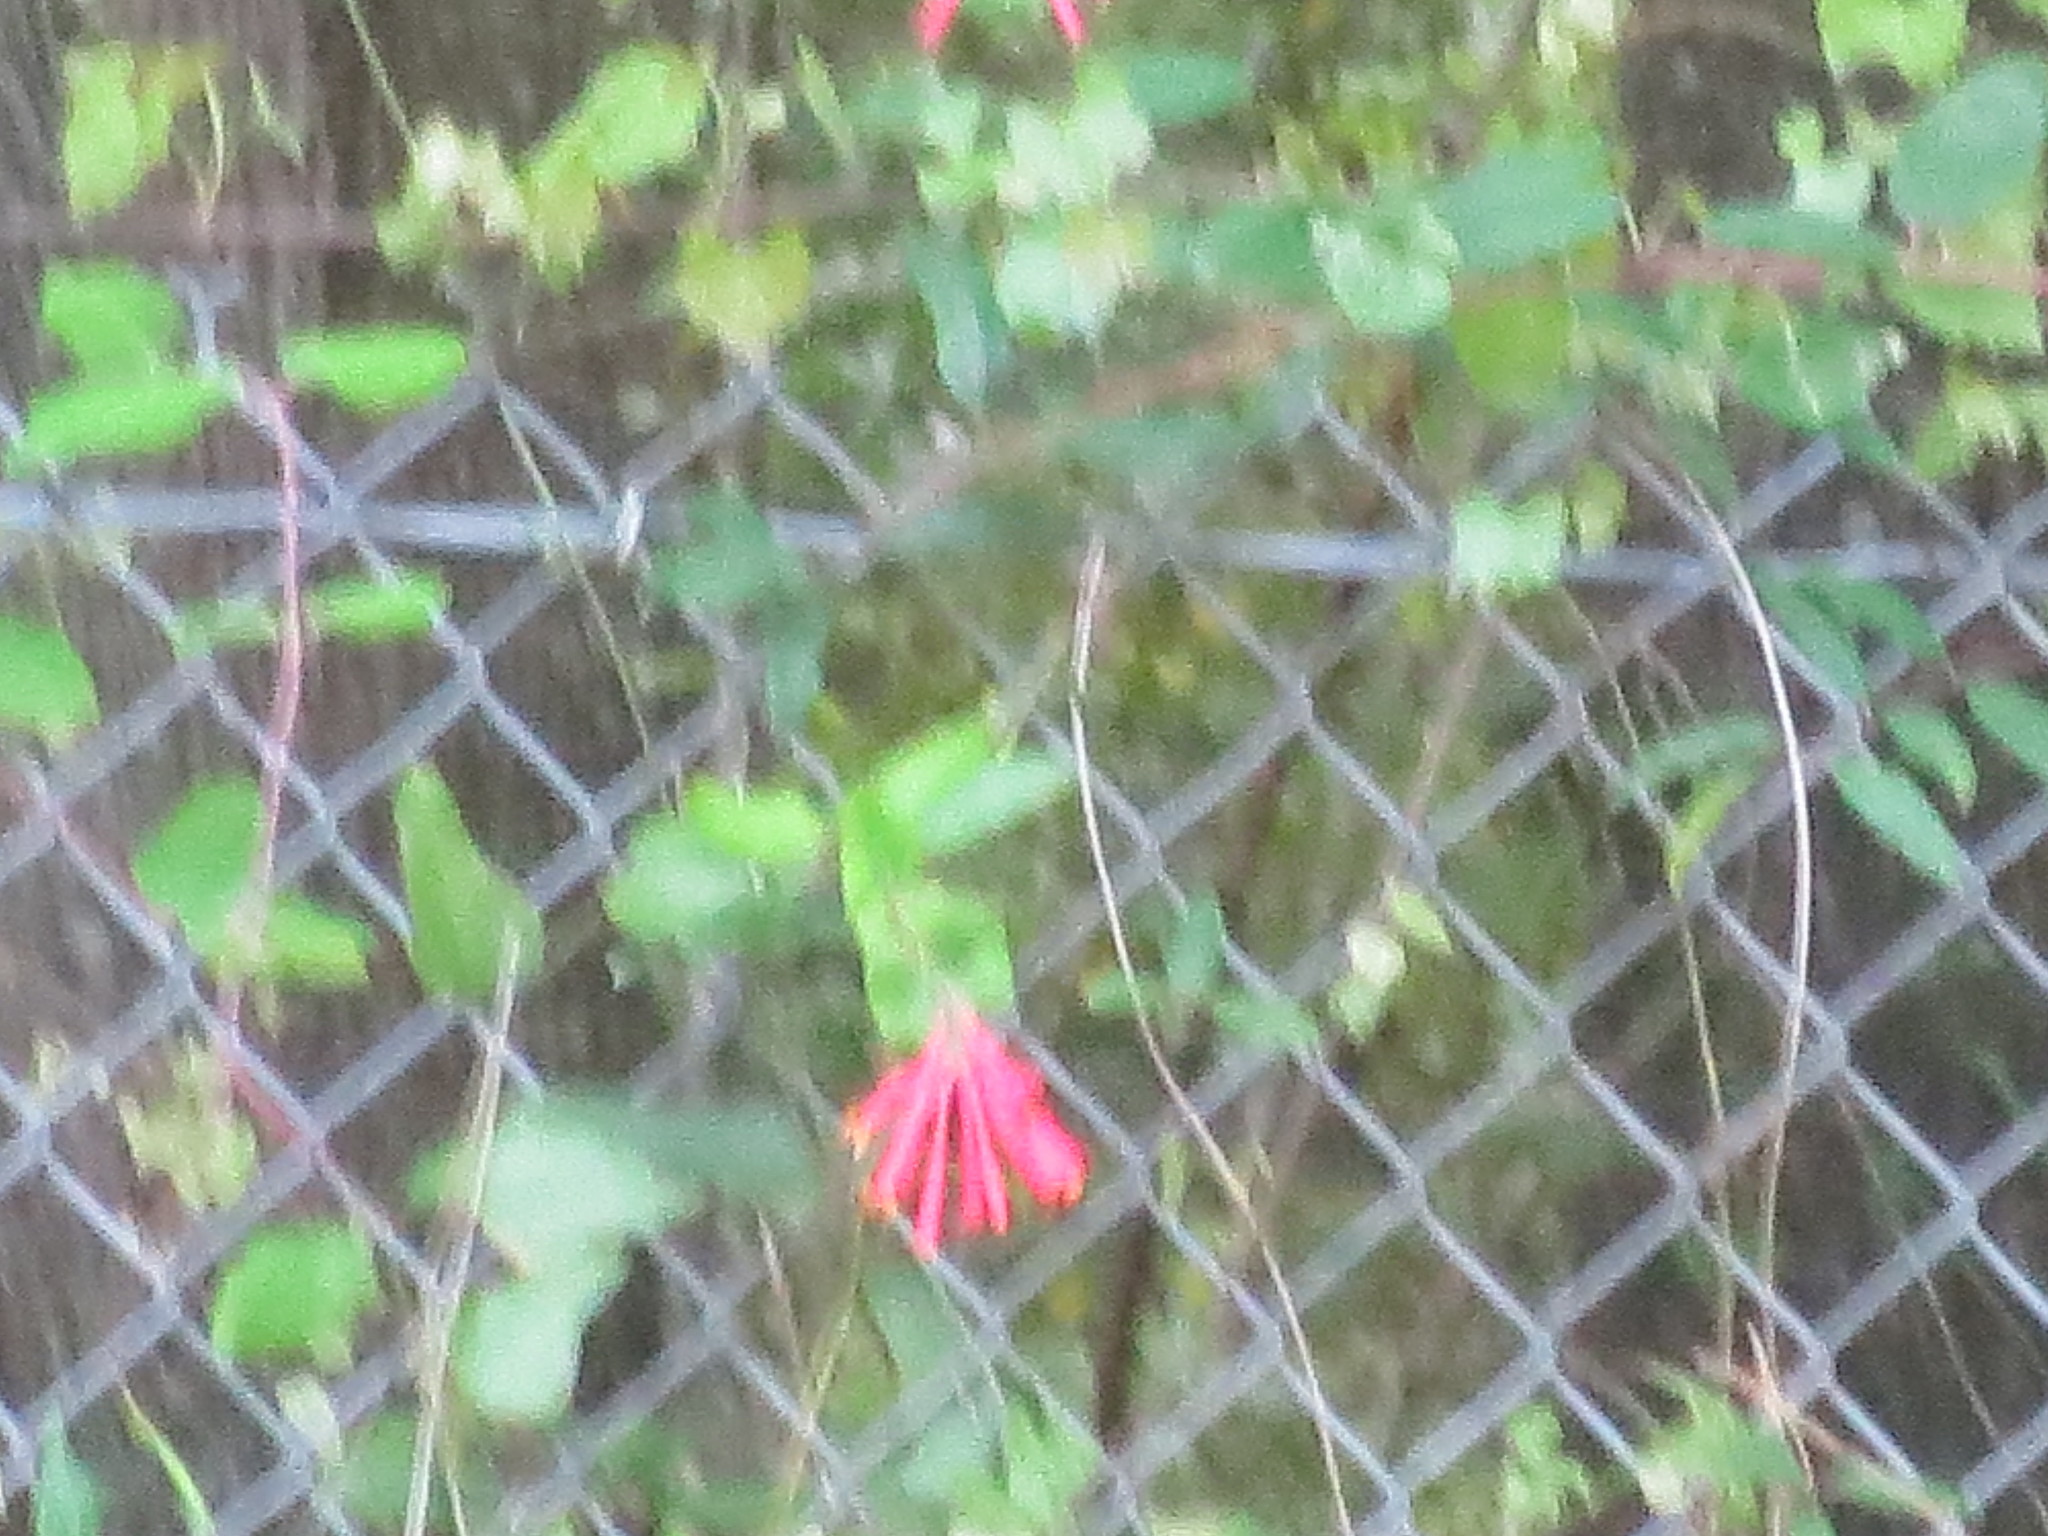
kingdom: Plantae
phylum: Tracheophyta
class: Magnoliopsida
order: Dipsacales
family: Caprifoliaceae
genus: Lonicera
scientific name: Lonicera sempervirens
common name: Coral honeysuckle
